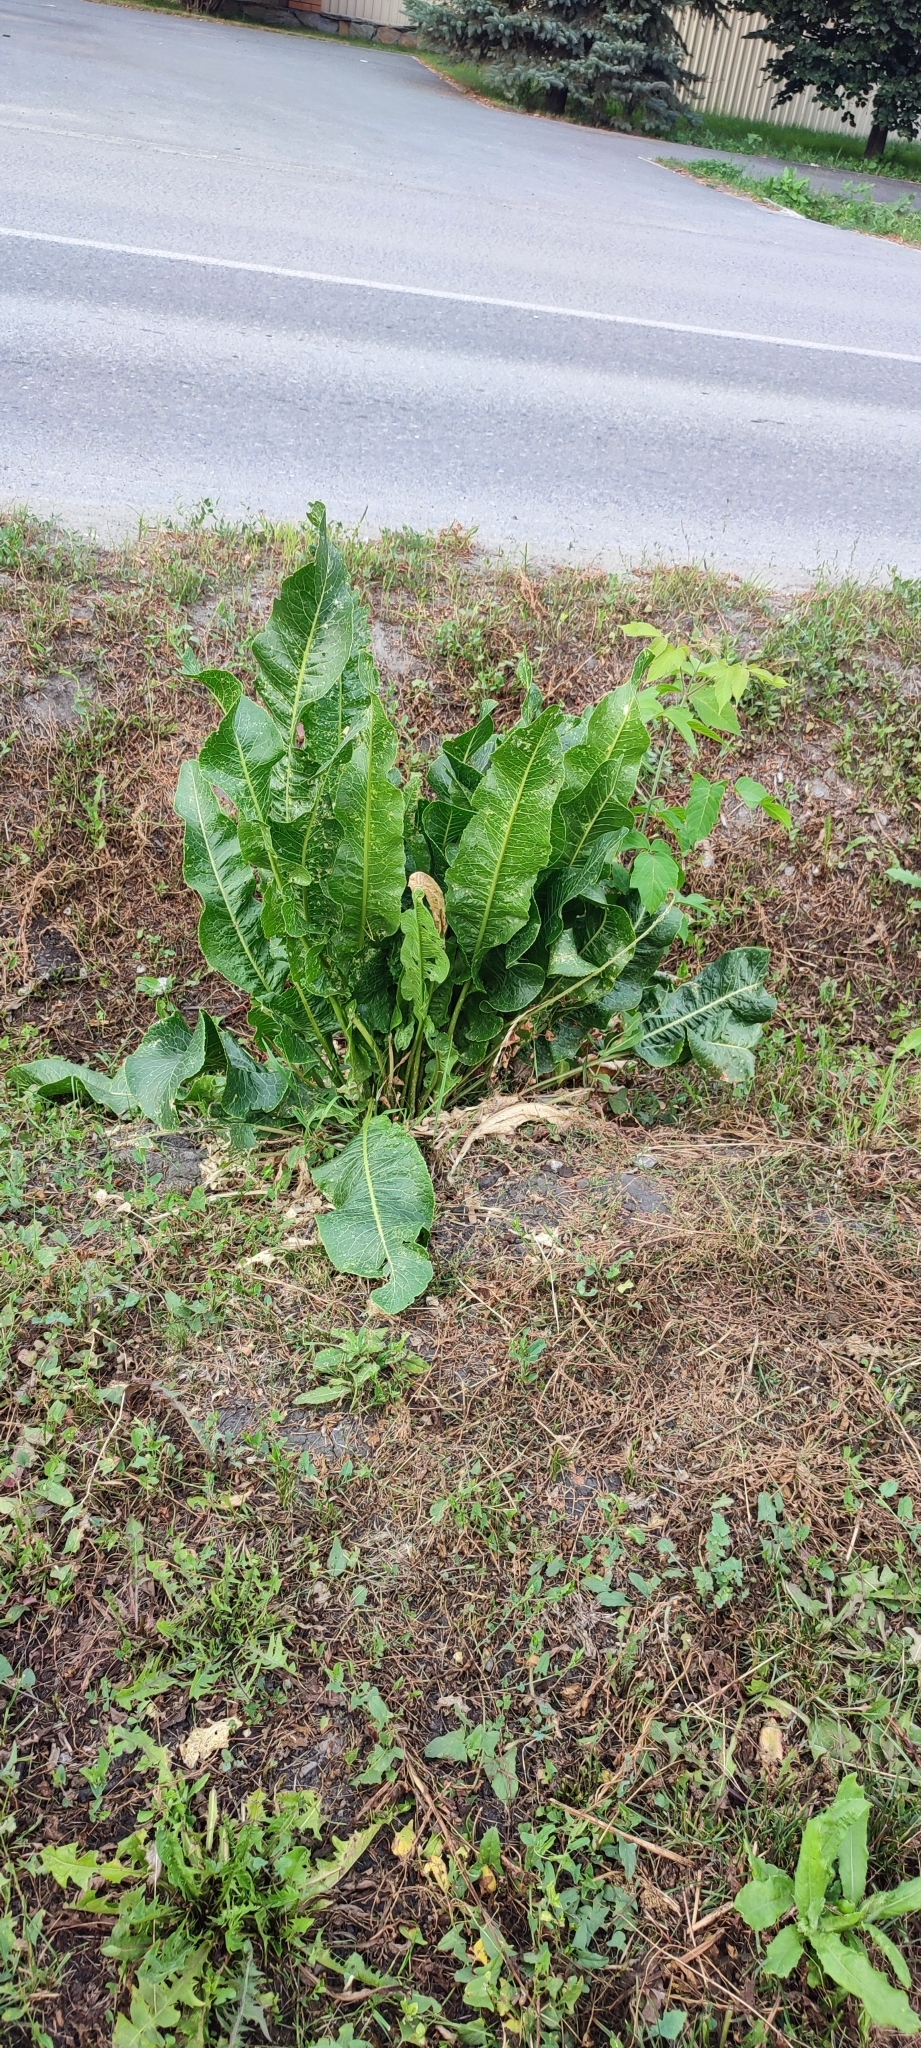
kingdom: Plantae
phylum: Tracheophyta
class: Magnoliopsida
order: Brassicales
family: Brassicaceae
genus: Armoracia
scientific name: Armoracia rusticana
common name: Horseradish
